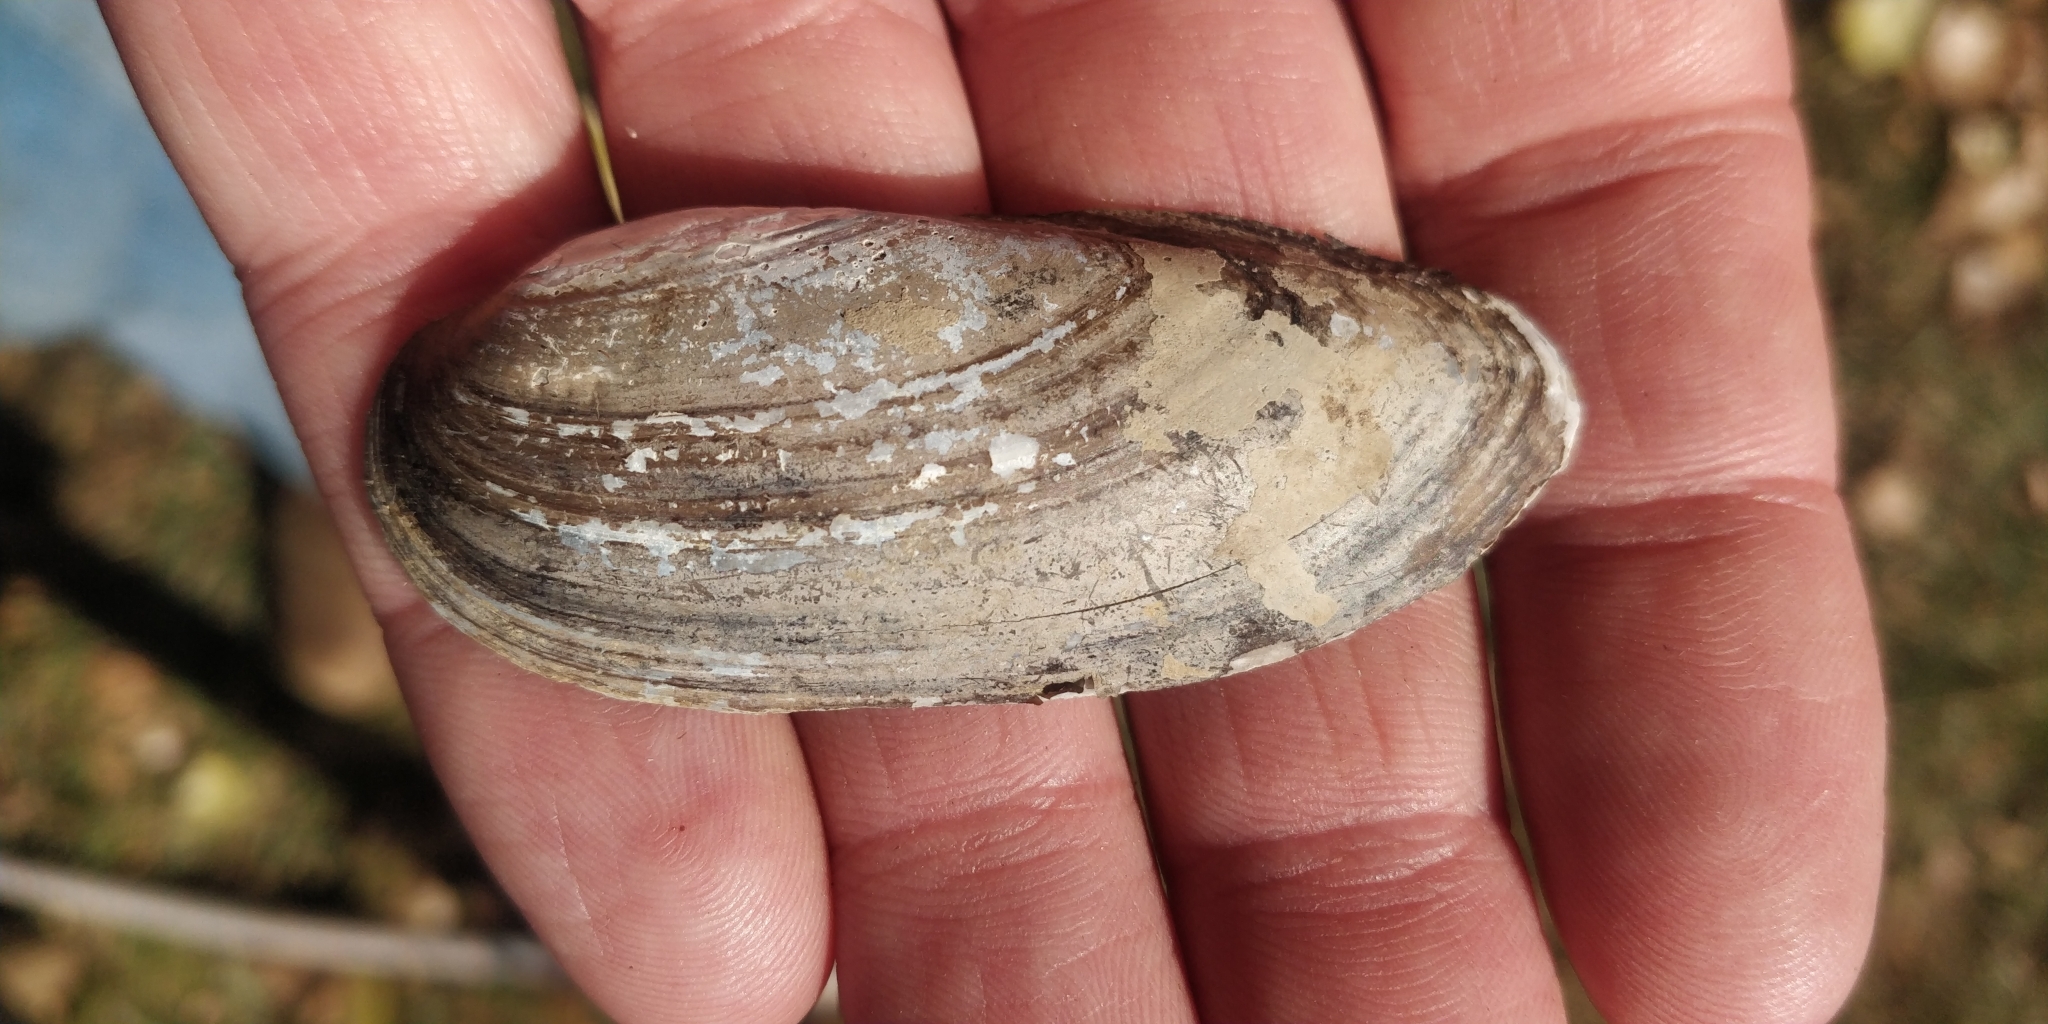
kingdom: Animalia
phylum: Mollusca
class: Bivalvia
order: Unionida
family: Unionidae
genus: Lampsilis
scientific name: Lampsilis teres
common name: Yellow sandshell
